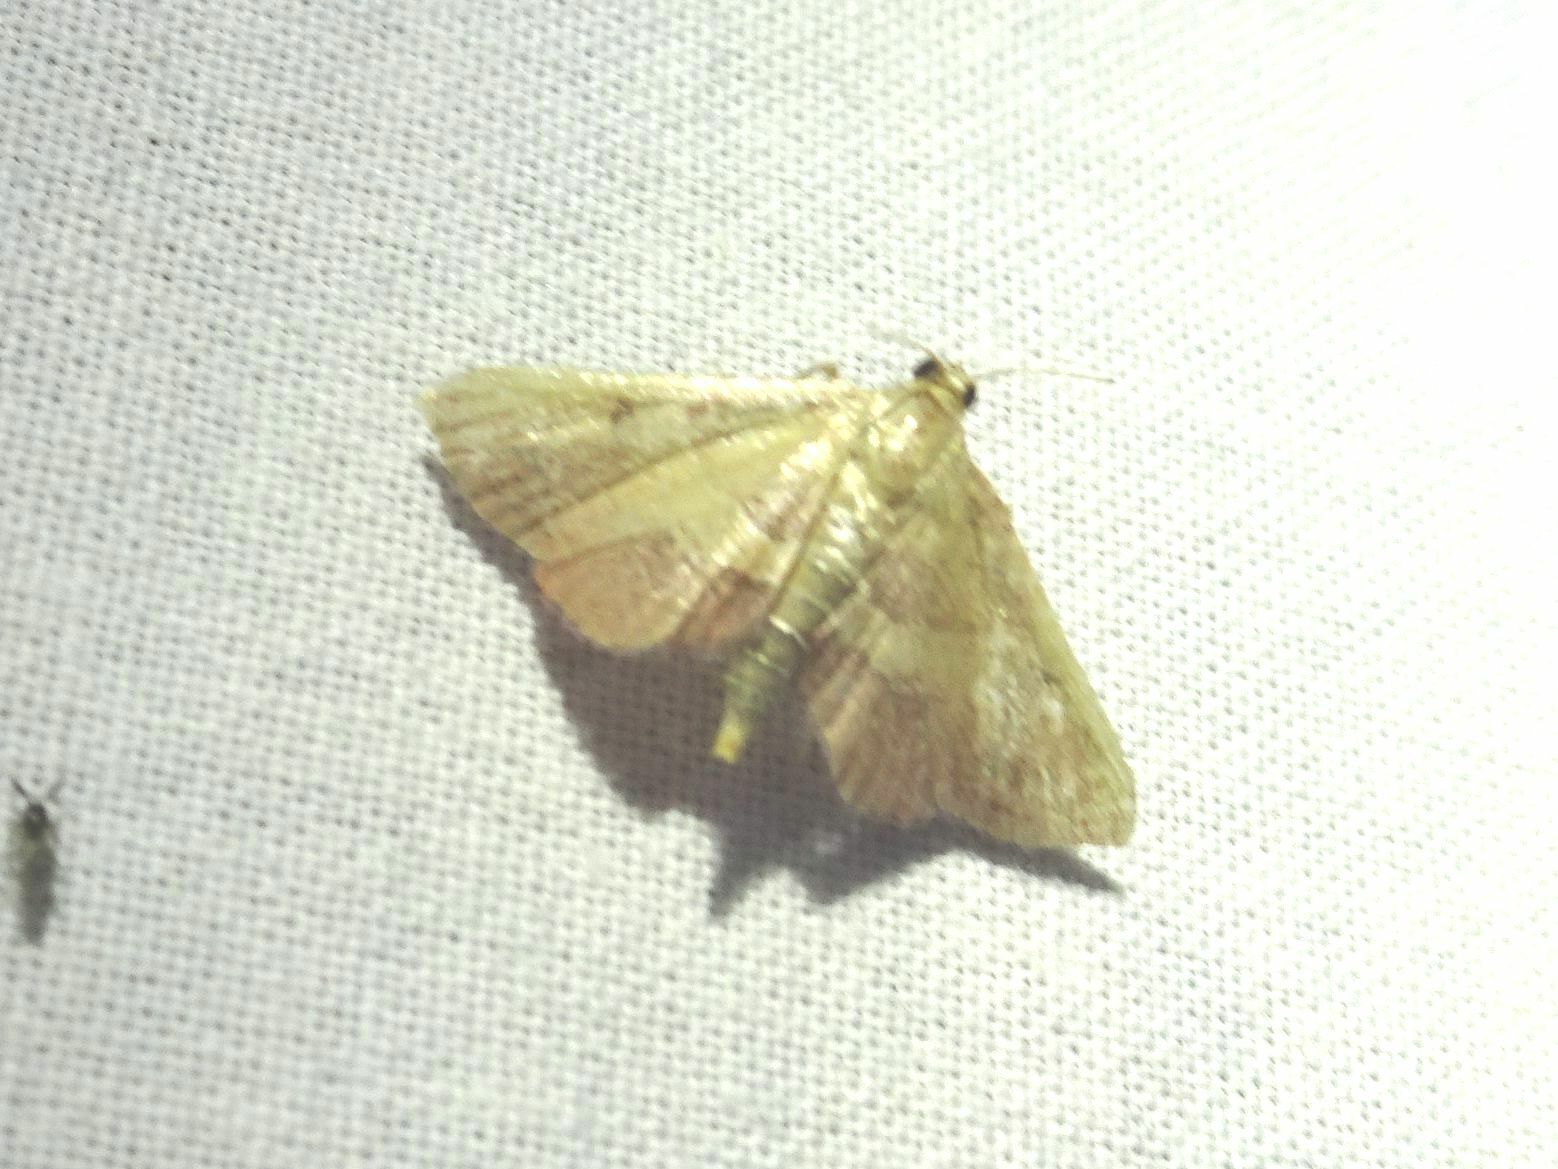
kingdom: Animalia
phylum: Arthropoda
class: Insecta
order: Lepidoptera
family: Pyralidae
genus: Endotricha
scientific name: Endotricha flammealis
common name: Rosy tabby
